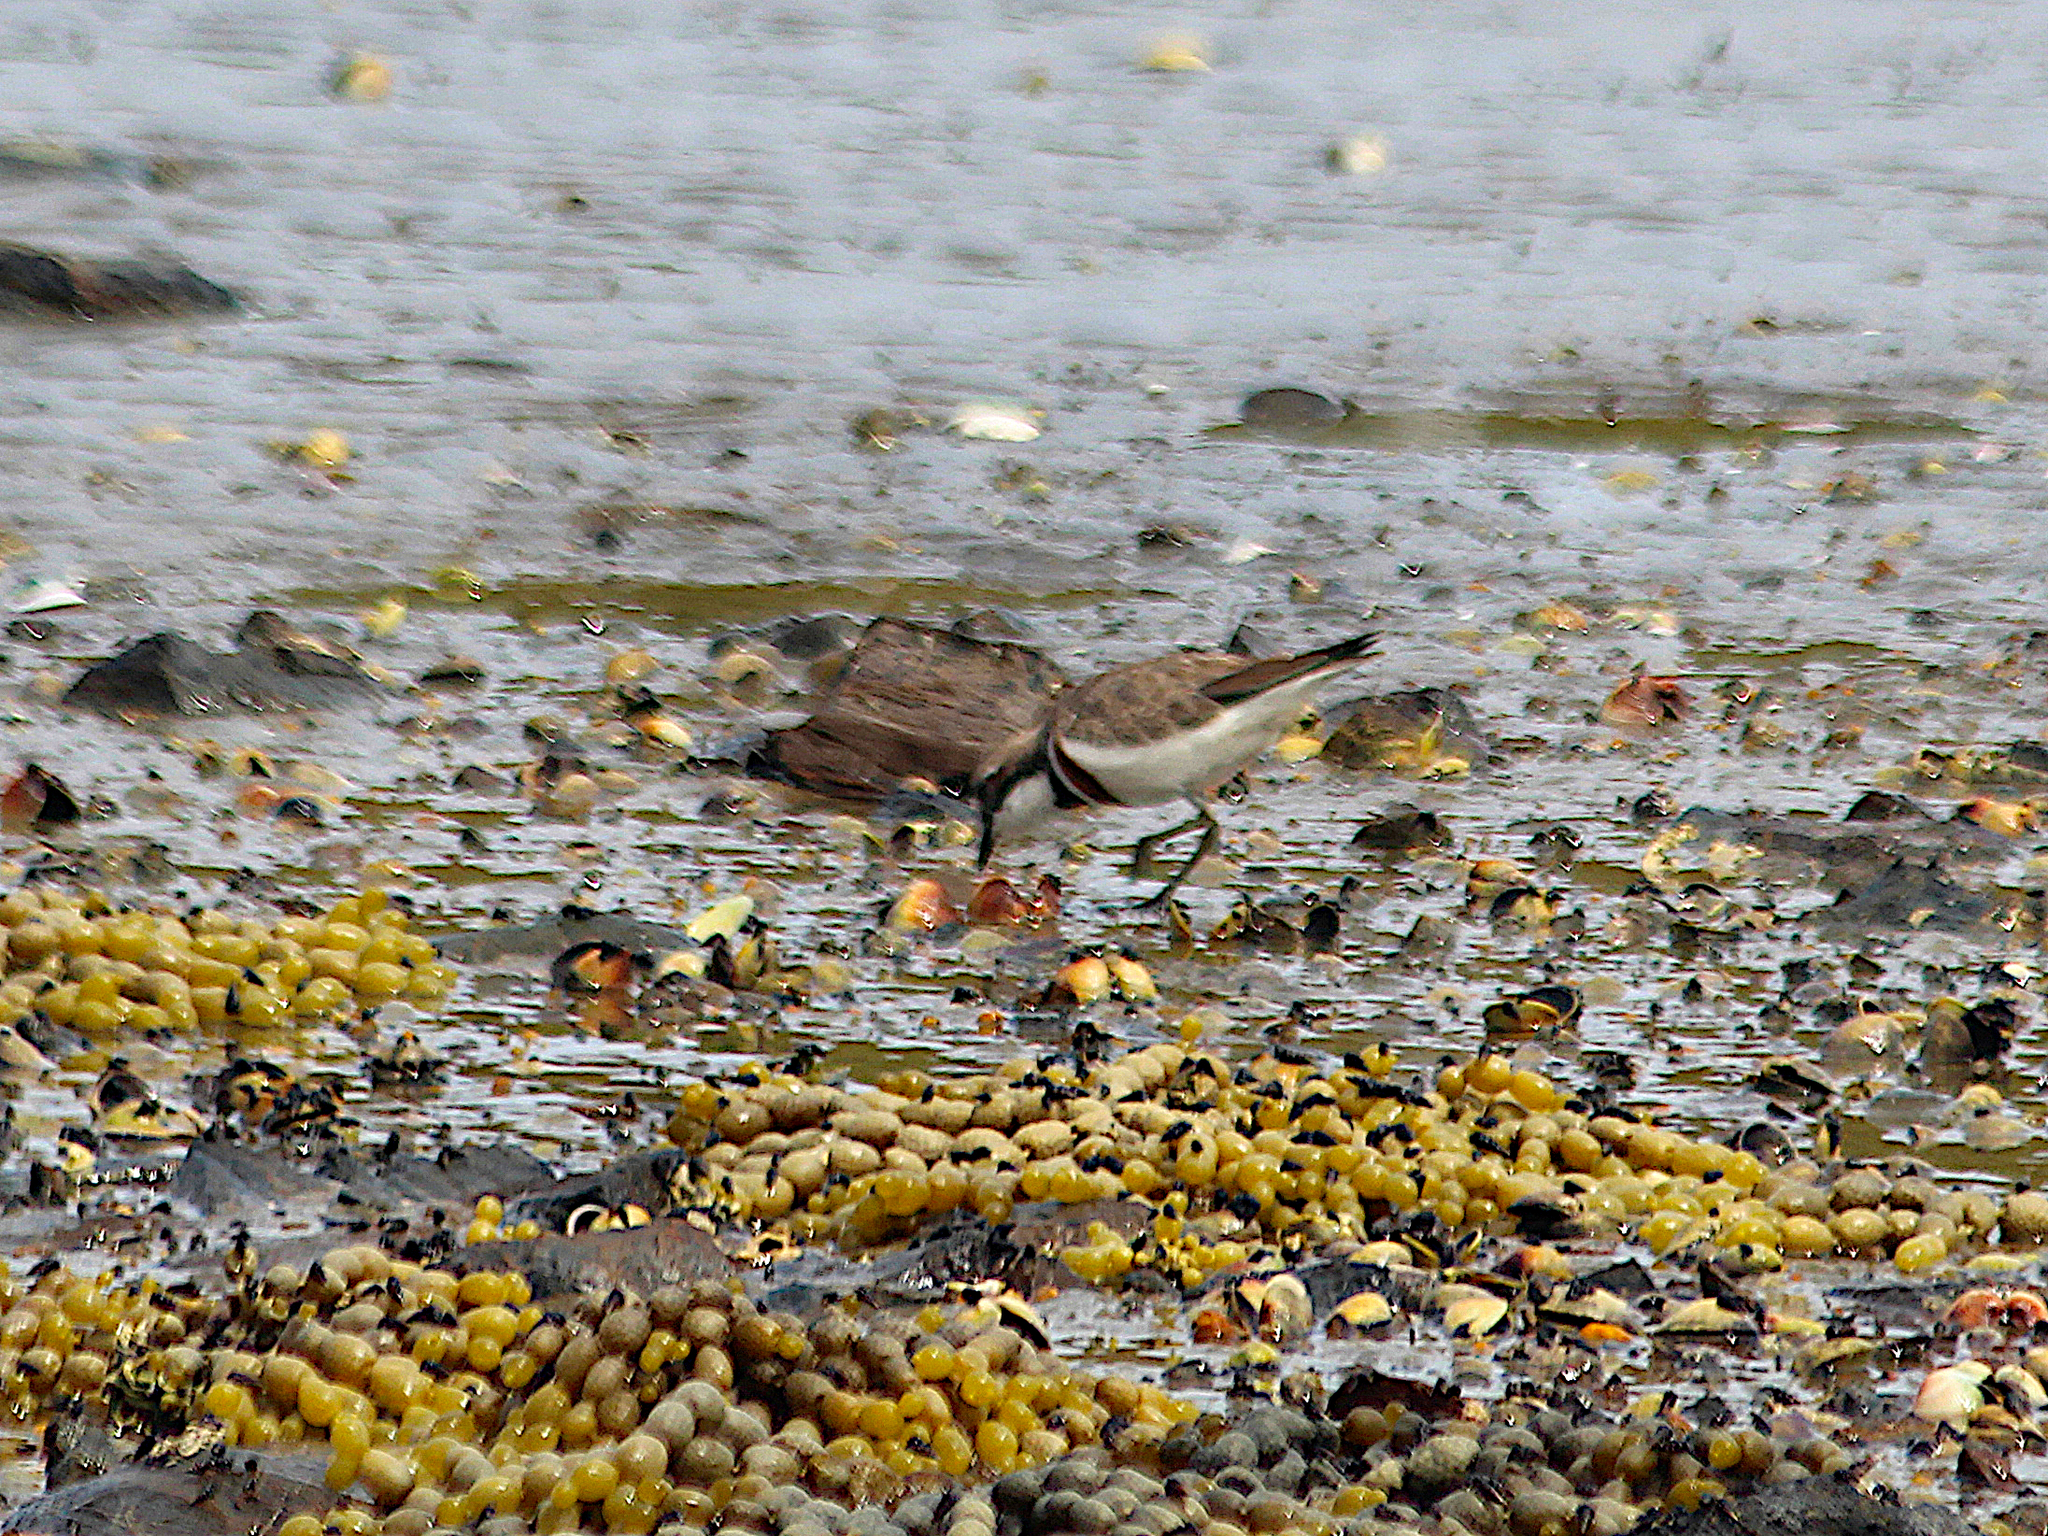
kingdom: Chromista
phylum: Ochrophyta
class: Phaeophyceae
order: Fucales
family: Hormosiraceae
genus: Hormosira
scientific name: Hormosira banksii
